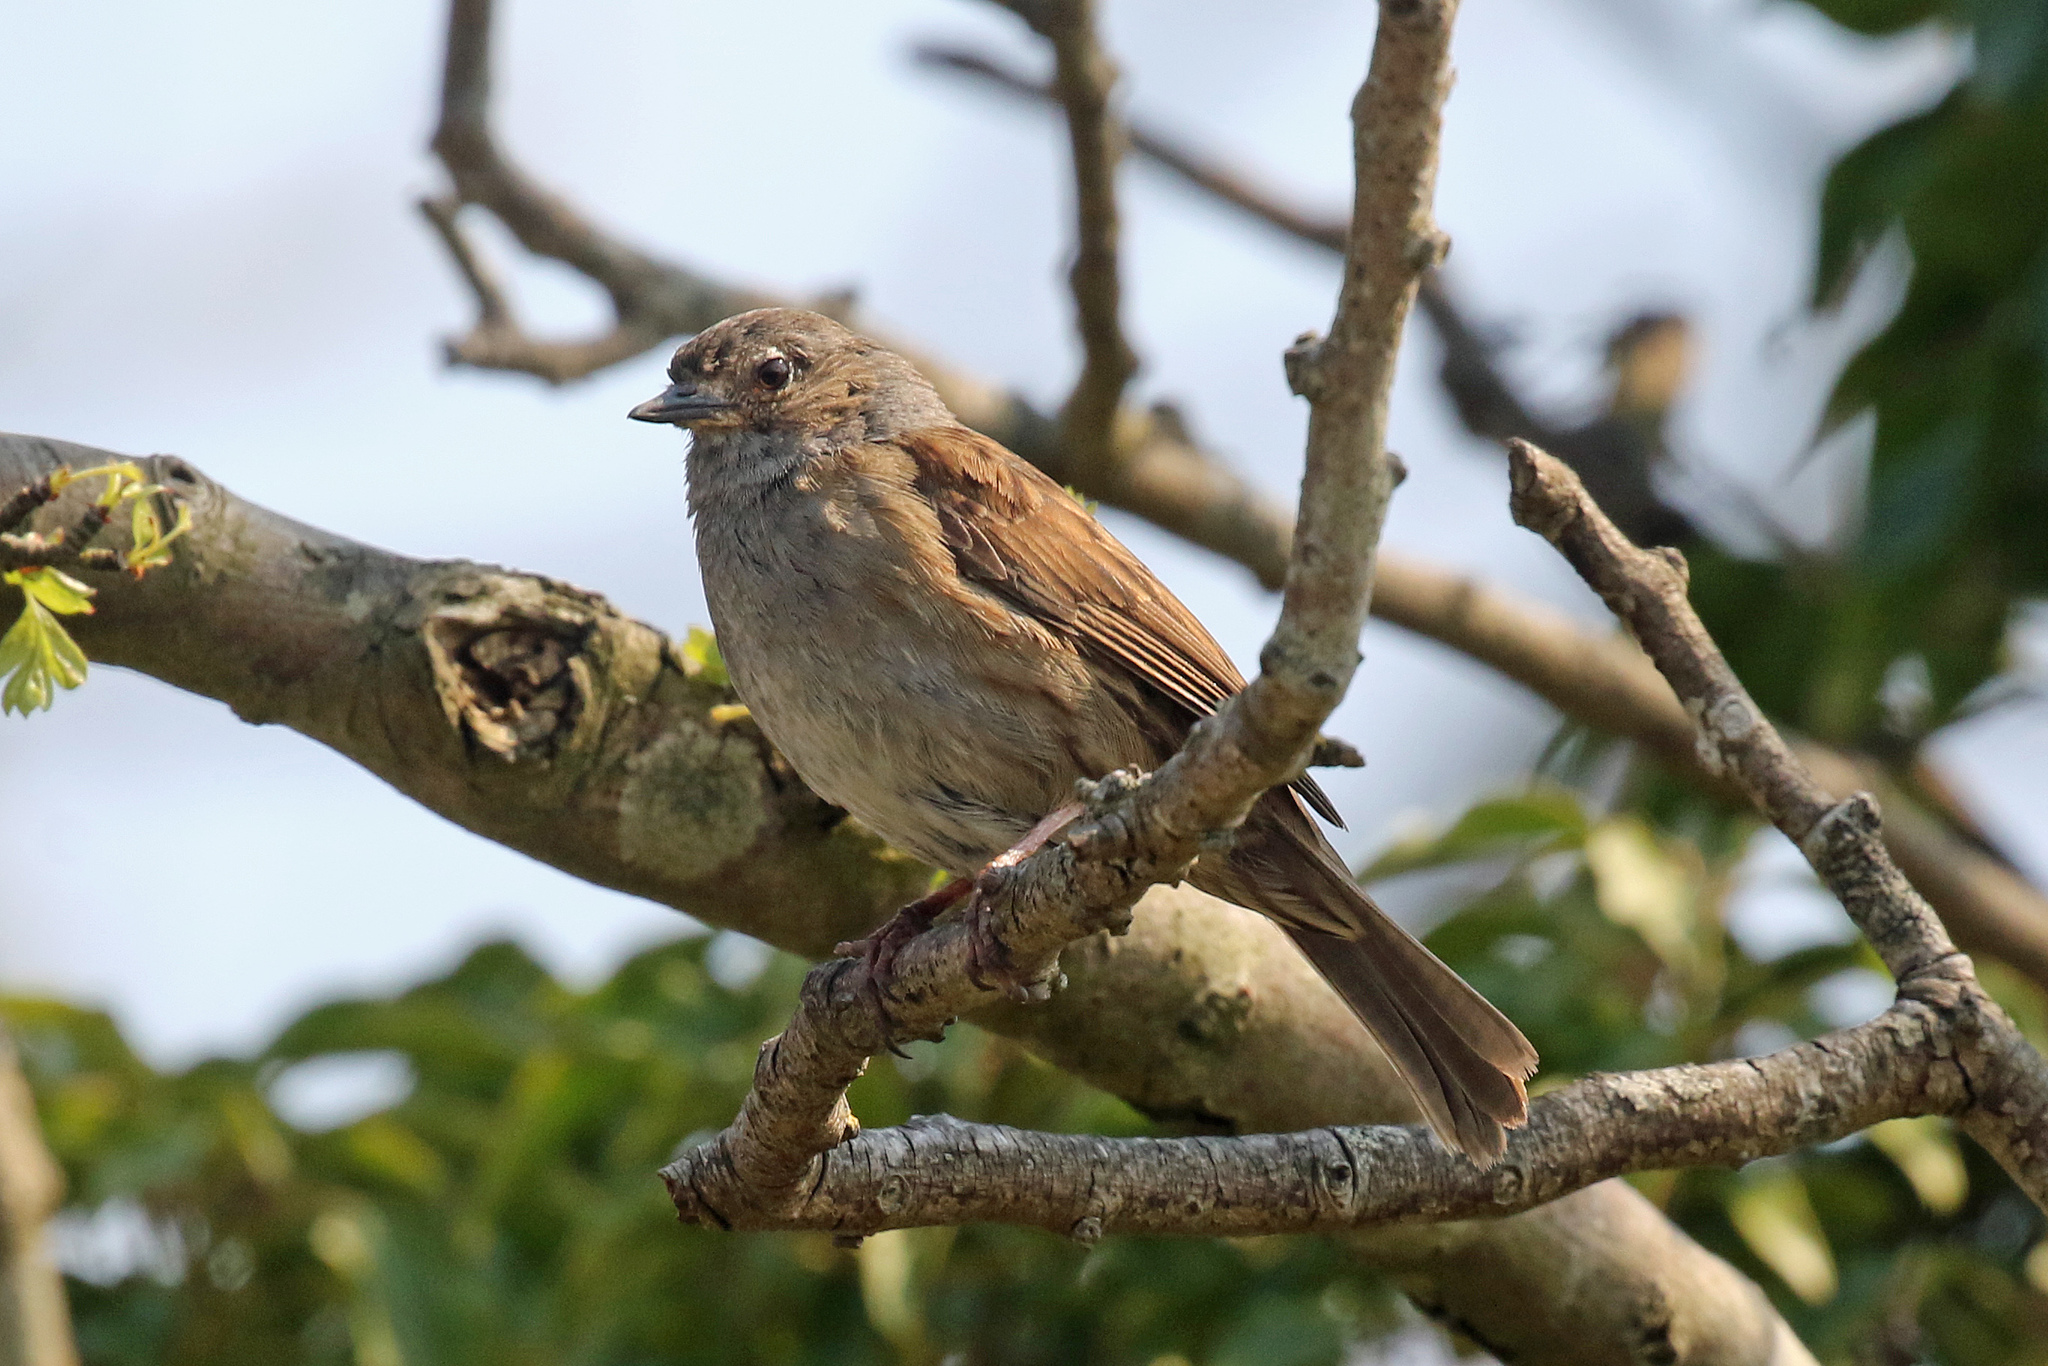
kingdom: Animalia
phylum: Chordata
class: Aves
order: Passeriformes
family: Prunellidae
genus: Prunella
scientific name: Prunella modularis
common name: Dunnock
